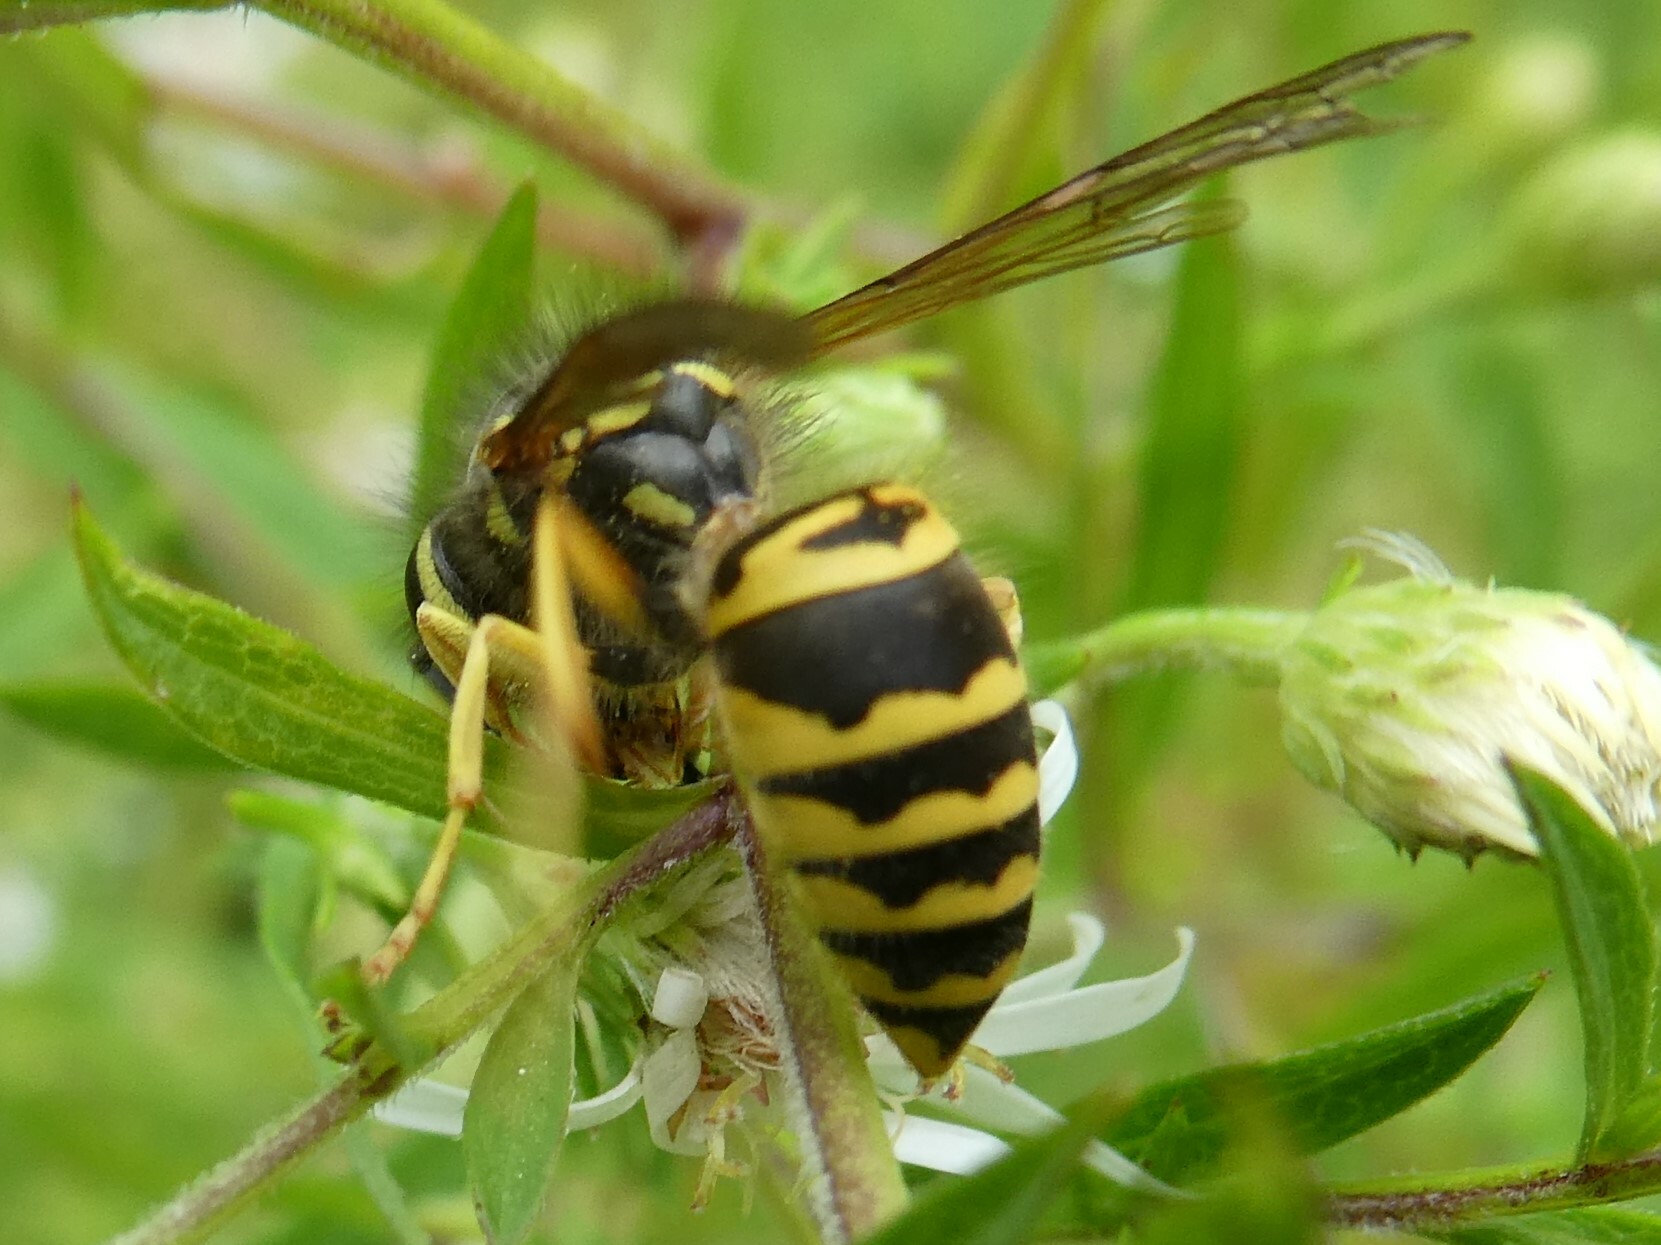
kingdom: Animalia
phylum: Arthropoda
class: Insecta
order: Hymenoptera
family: Vespidae
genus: Vespula
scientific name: Vespula maculifrons
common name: Eastern yellowjacket
